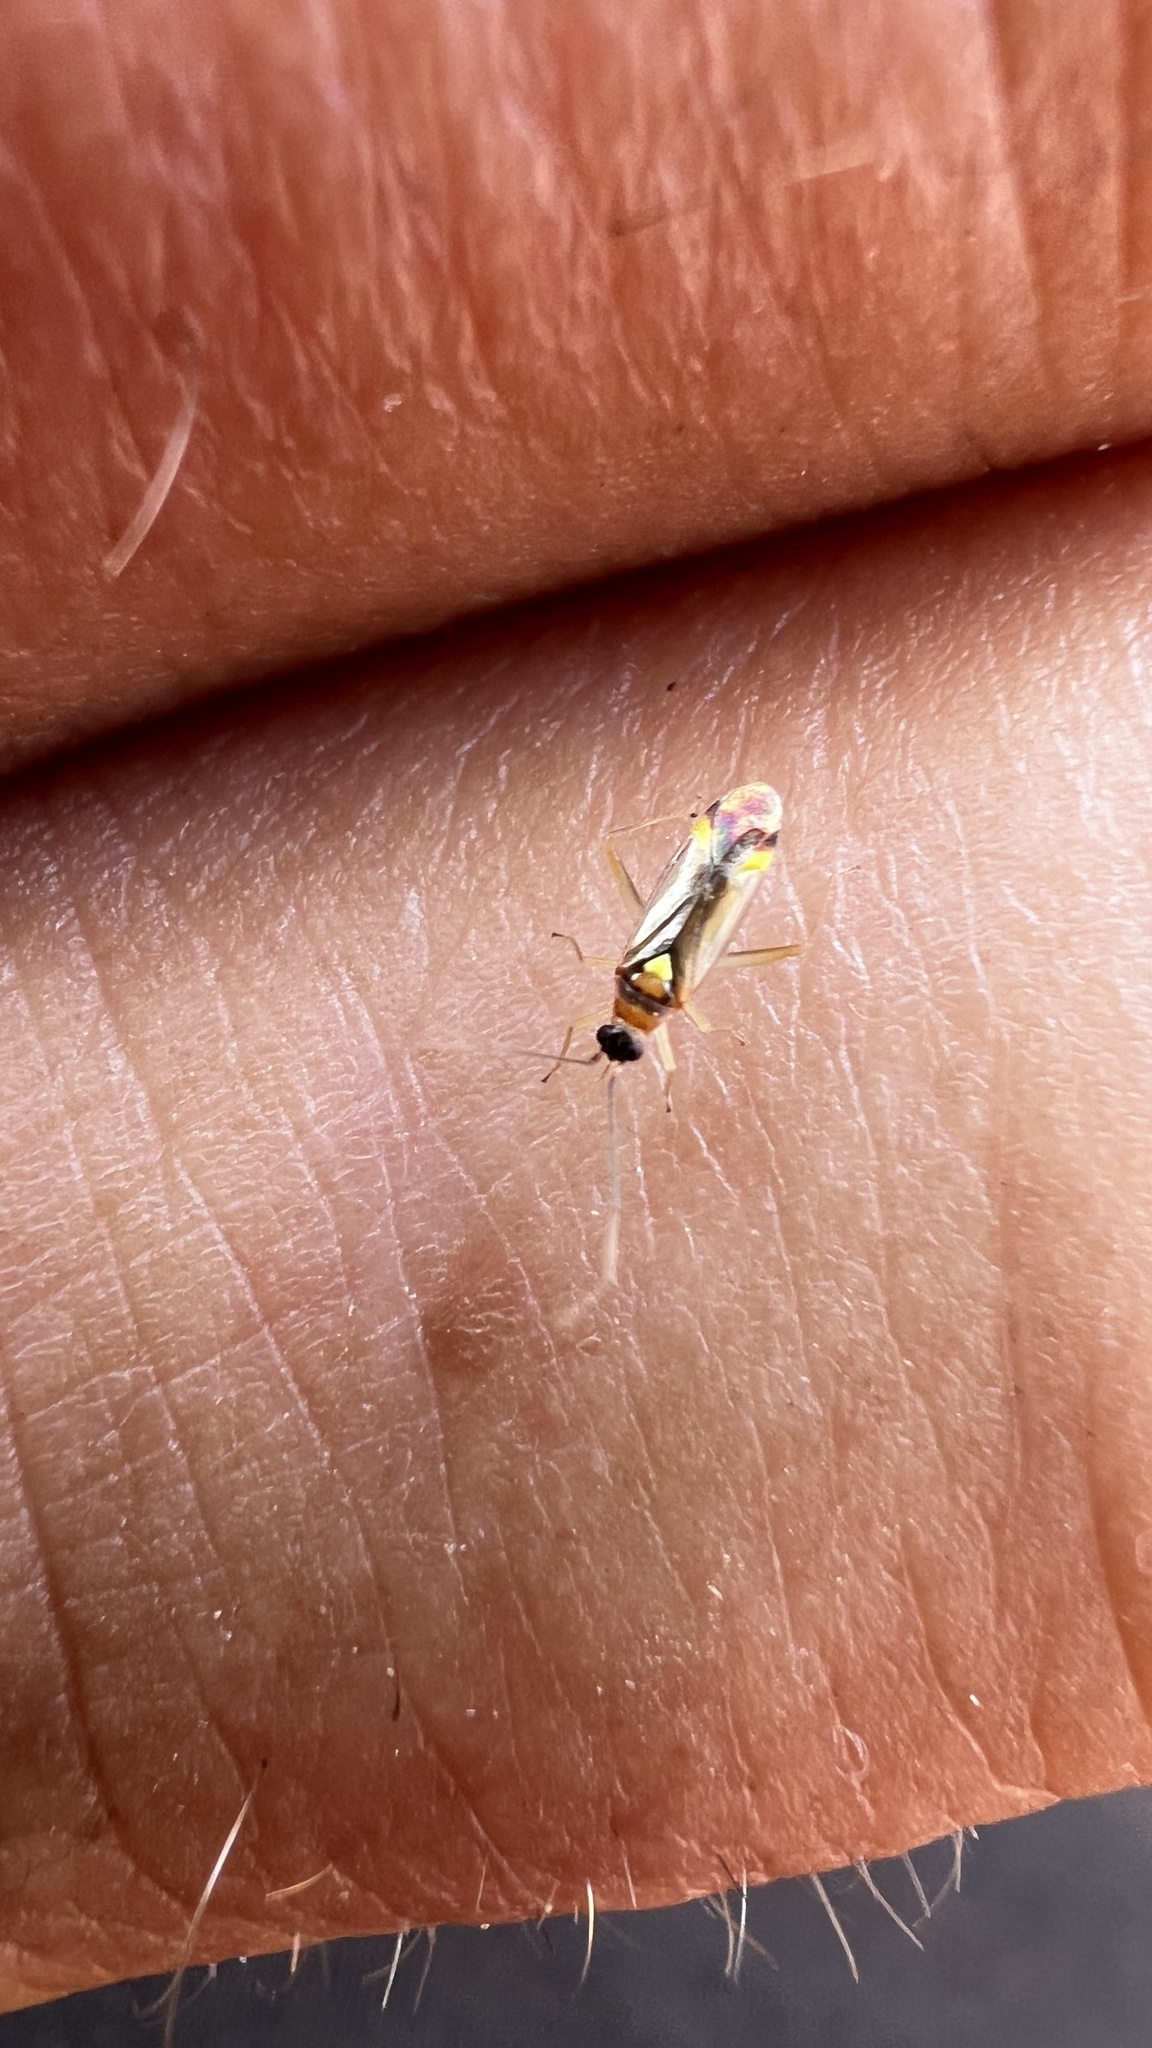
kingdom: Animalia
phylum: Arthropoda
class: Insecta
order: Hemiptera
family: Miridae
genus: Campyloneura
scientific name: Campyloneura virgula
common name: Predatory bug
